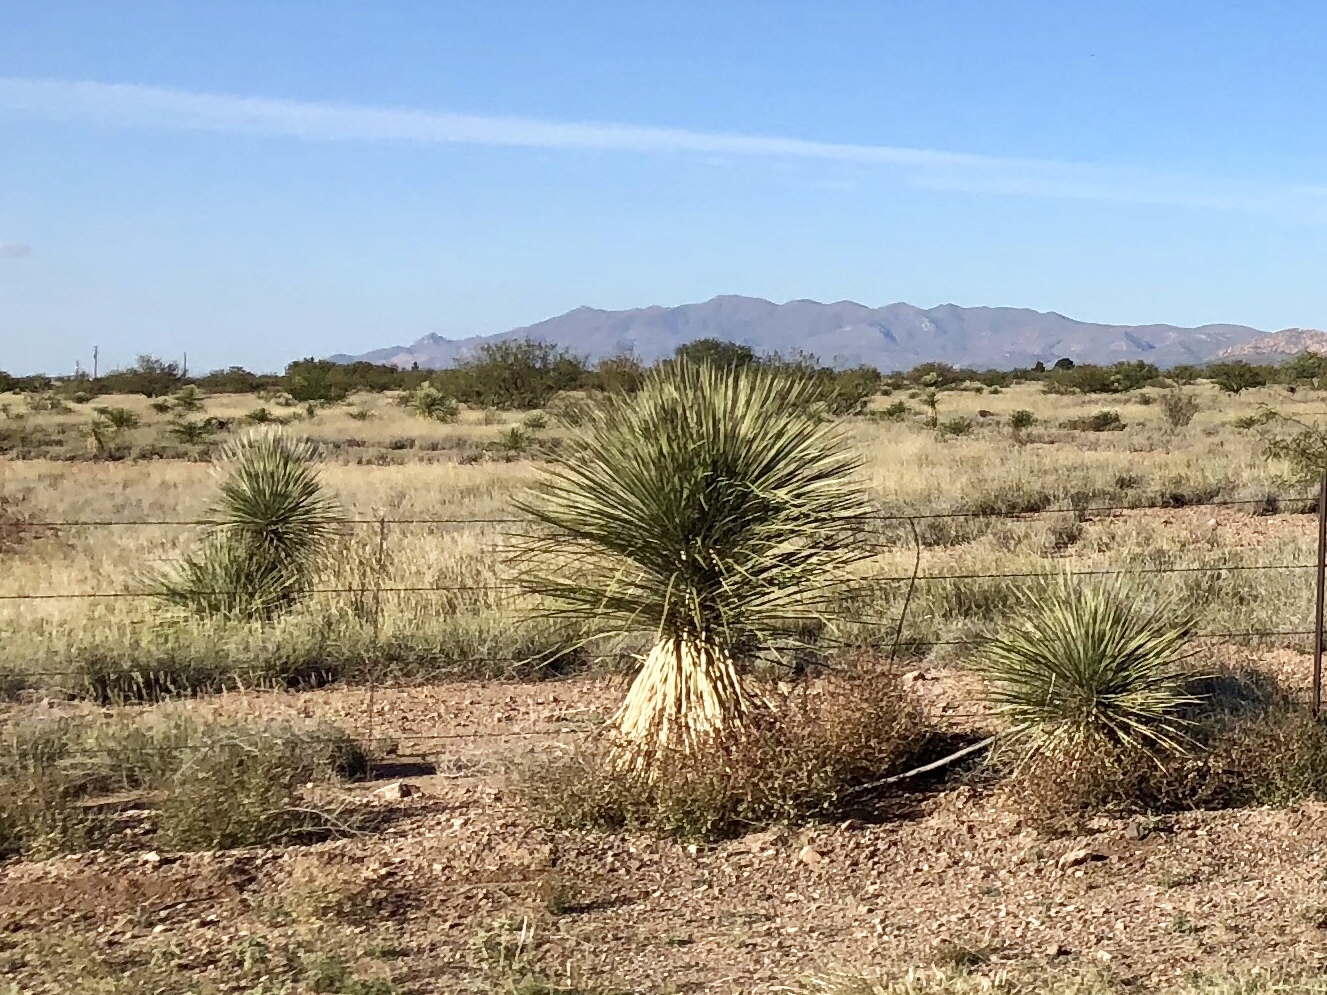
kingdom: Plantae
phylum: Tracheophyta
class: Liliopsida
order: Asparagales
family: Asparagaceae
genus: Yucca
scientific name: Yucca elata
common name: Palmella
